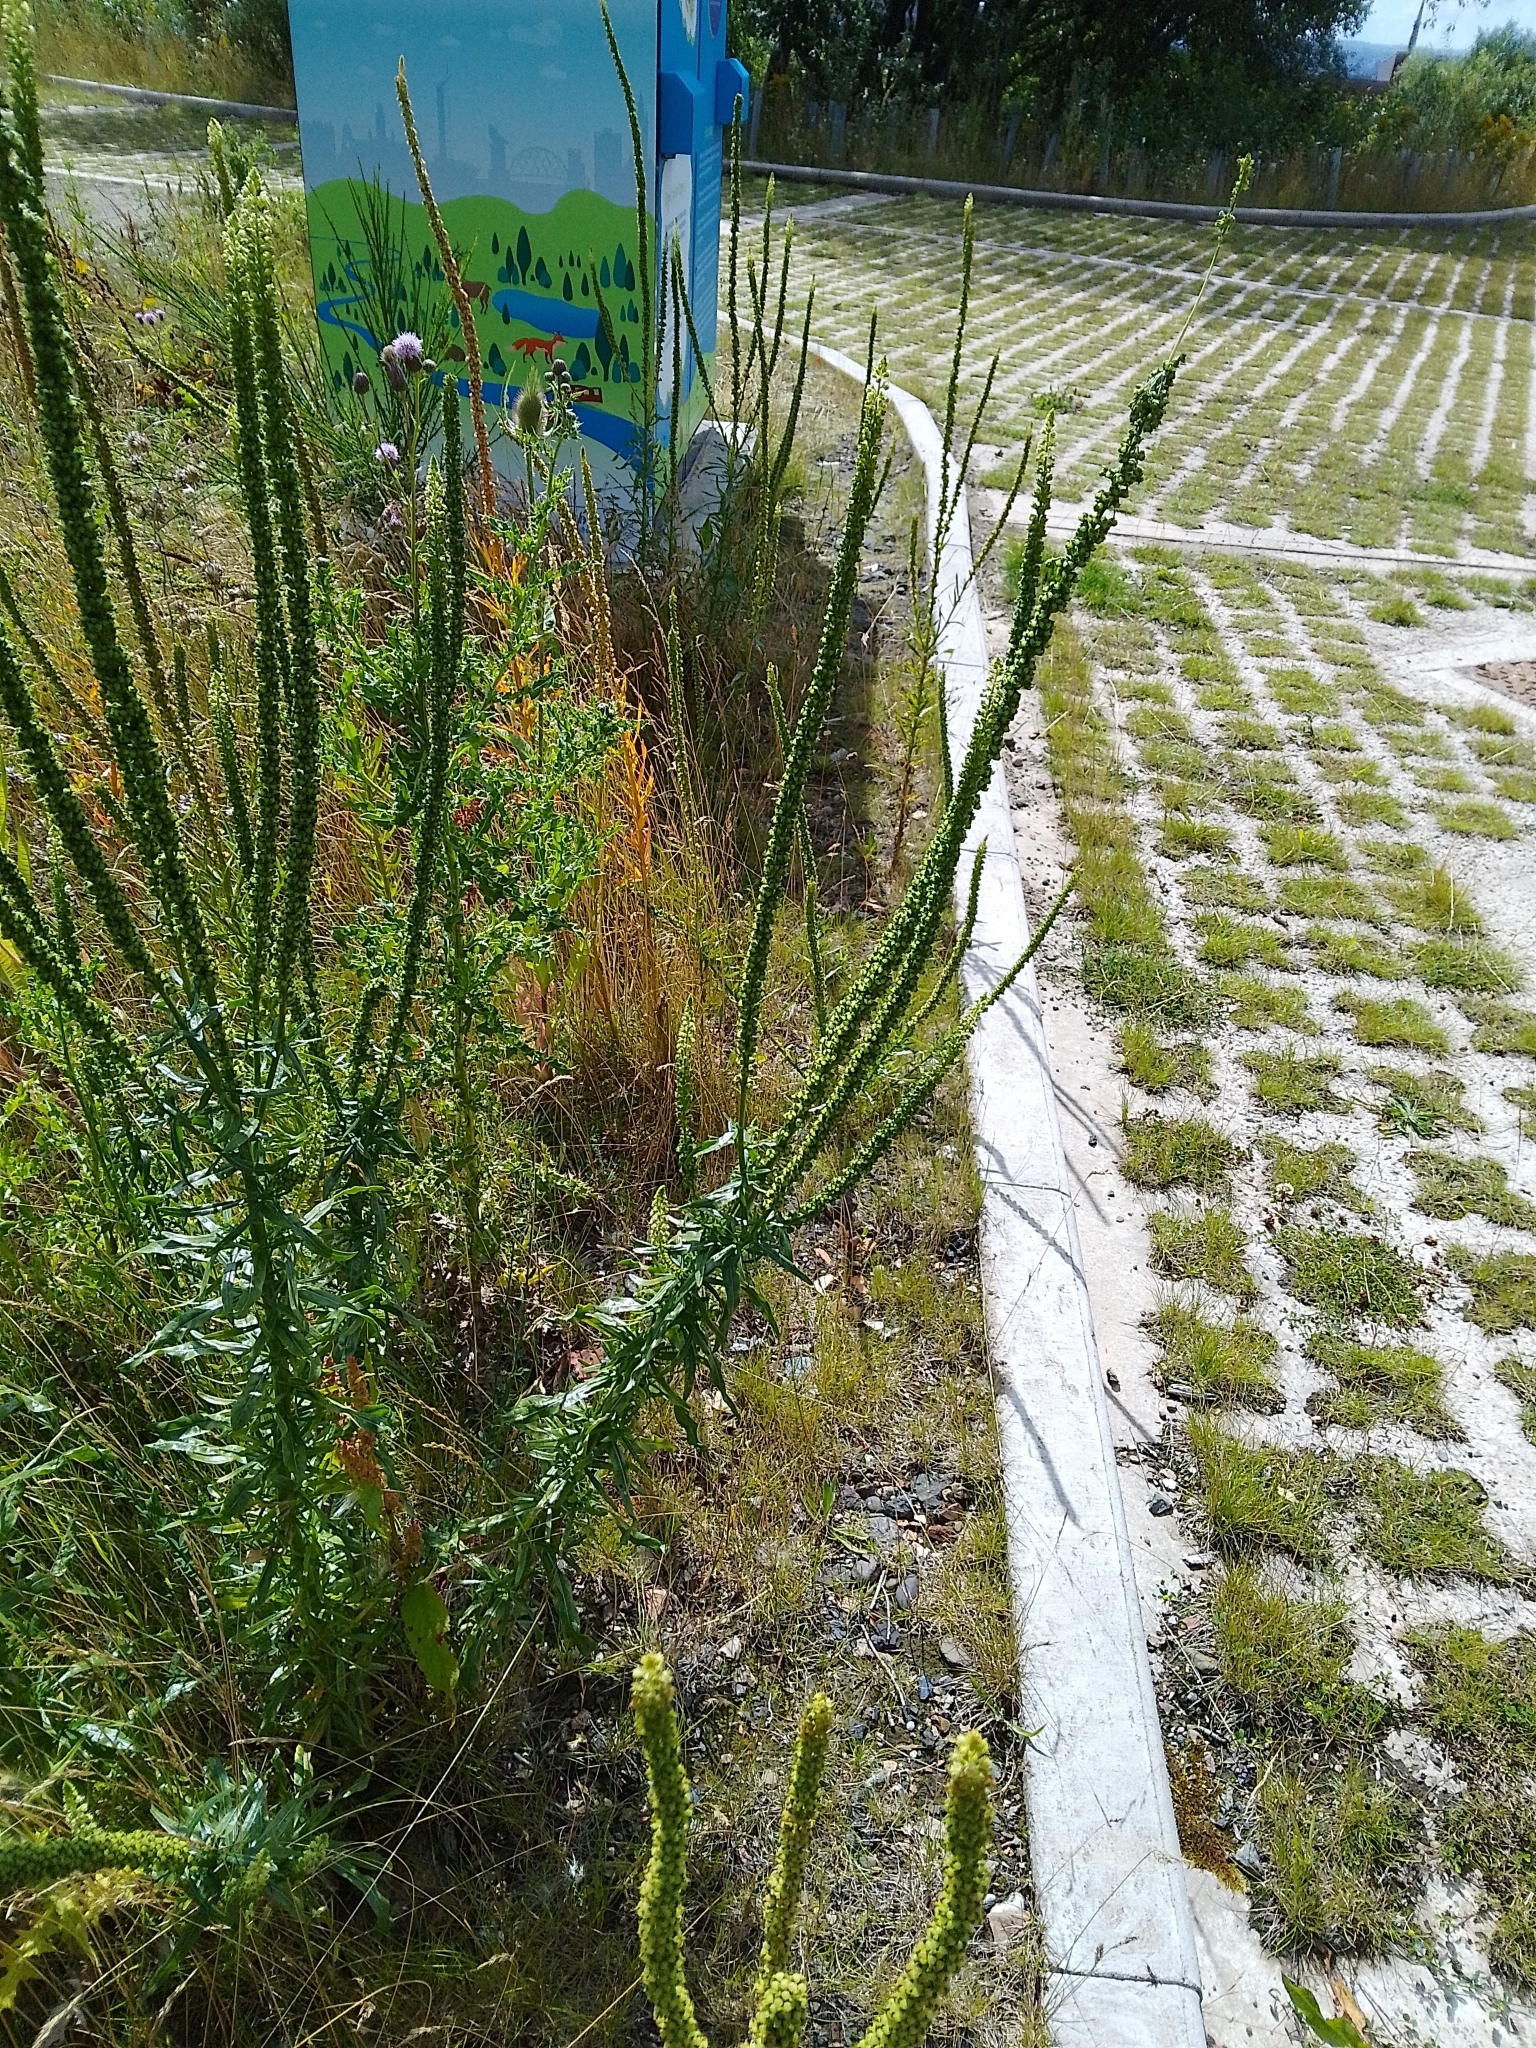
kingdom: Plantae
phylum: Tracheophyta
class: Magnoliopsida
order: Brassicales
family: Resedaceae
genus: Reseda
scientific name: Reseda luteola
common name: Weld
